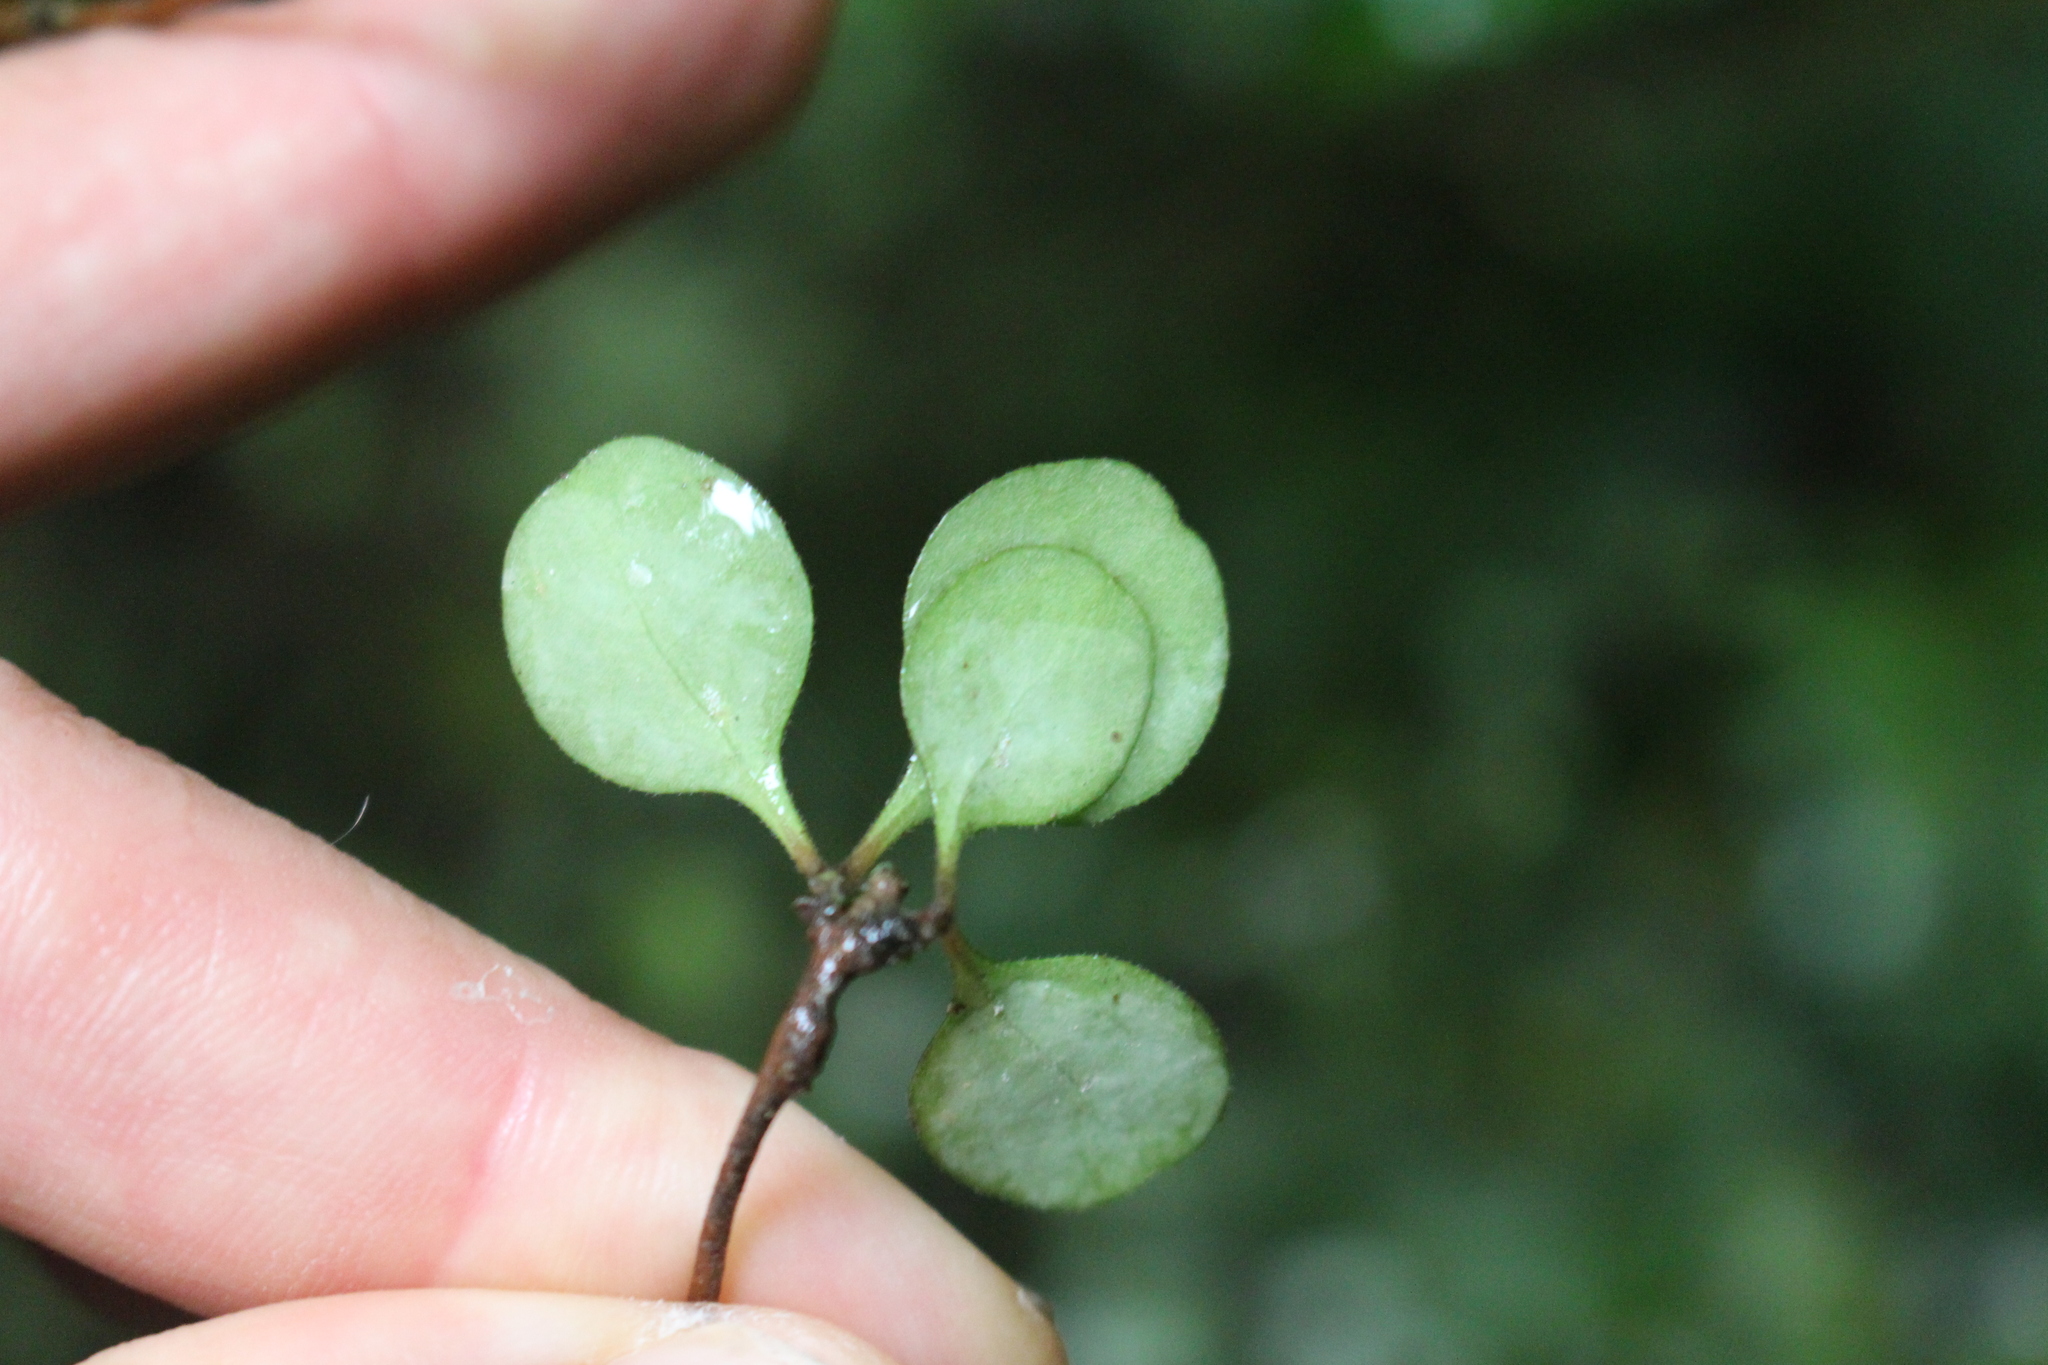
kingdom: Plantae
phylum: Tracheophyta
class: Magnoliopsida
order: Gentianales
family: Rubiaceae
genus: Coprosma
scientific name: Coprosma crassifolia
